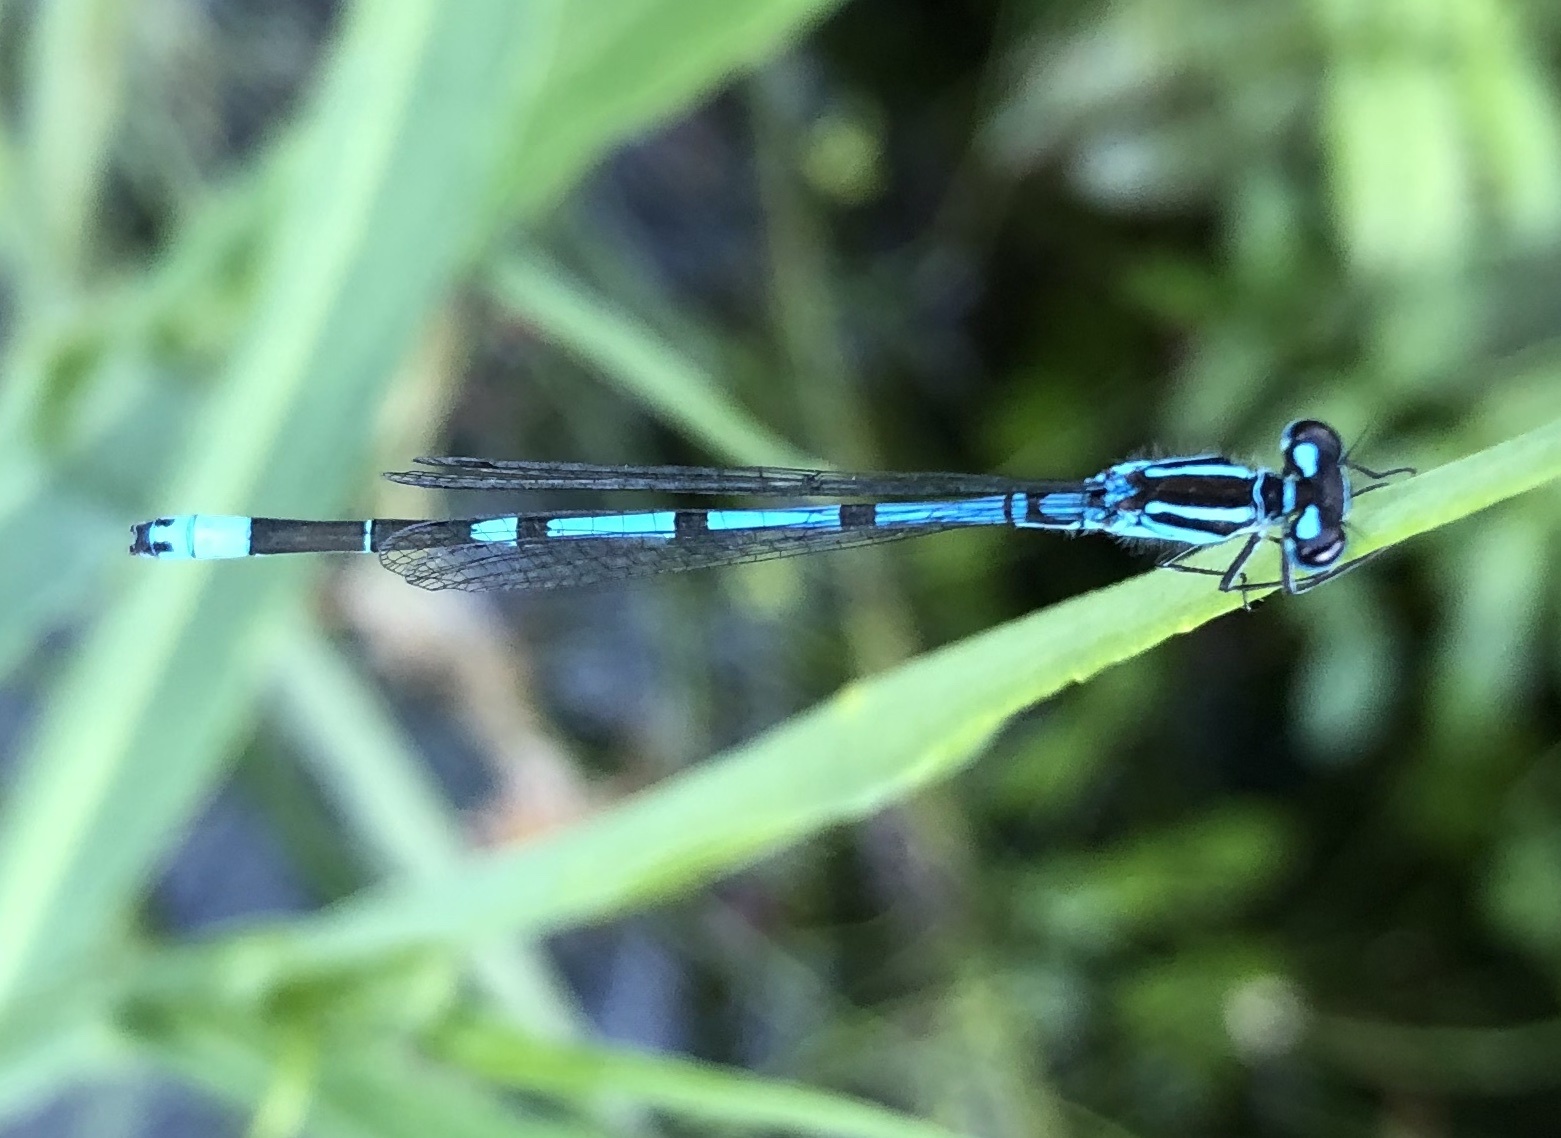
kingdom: Animalia
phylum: Arthropoda
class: Insecta
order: Odonata
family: Coenagrionidae
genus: Coenagrion
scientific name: Coenagrion puella
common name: Azure damselfly
